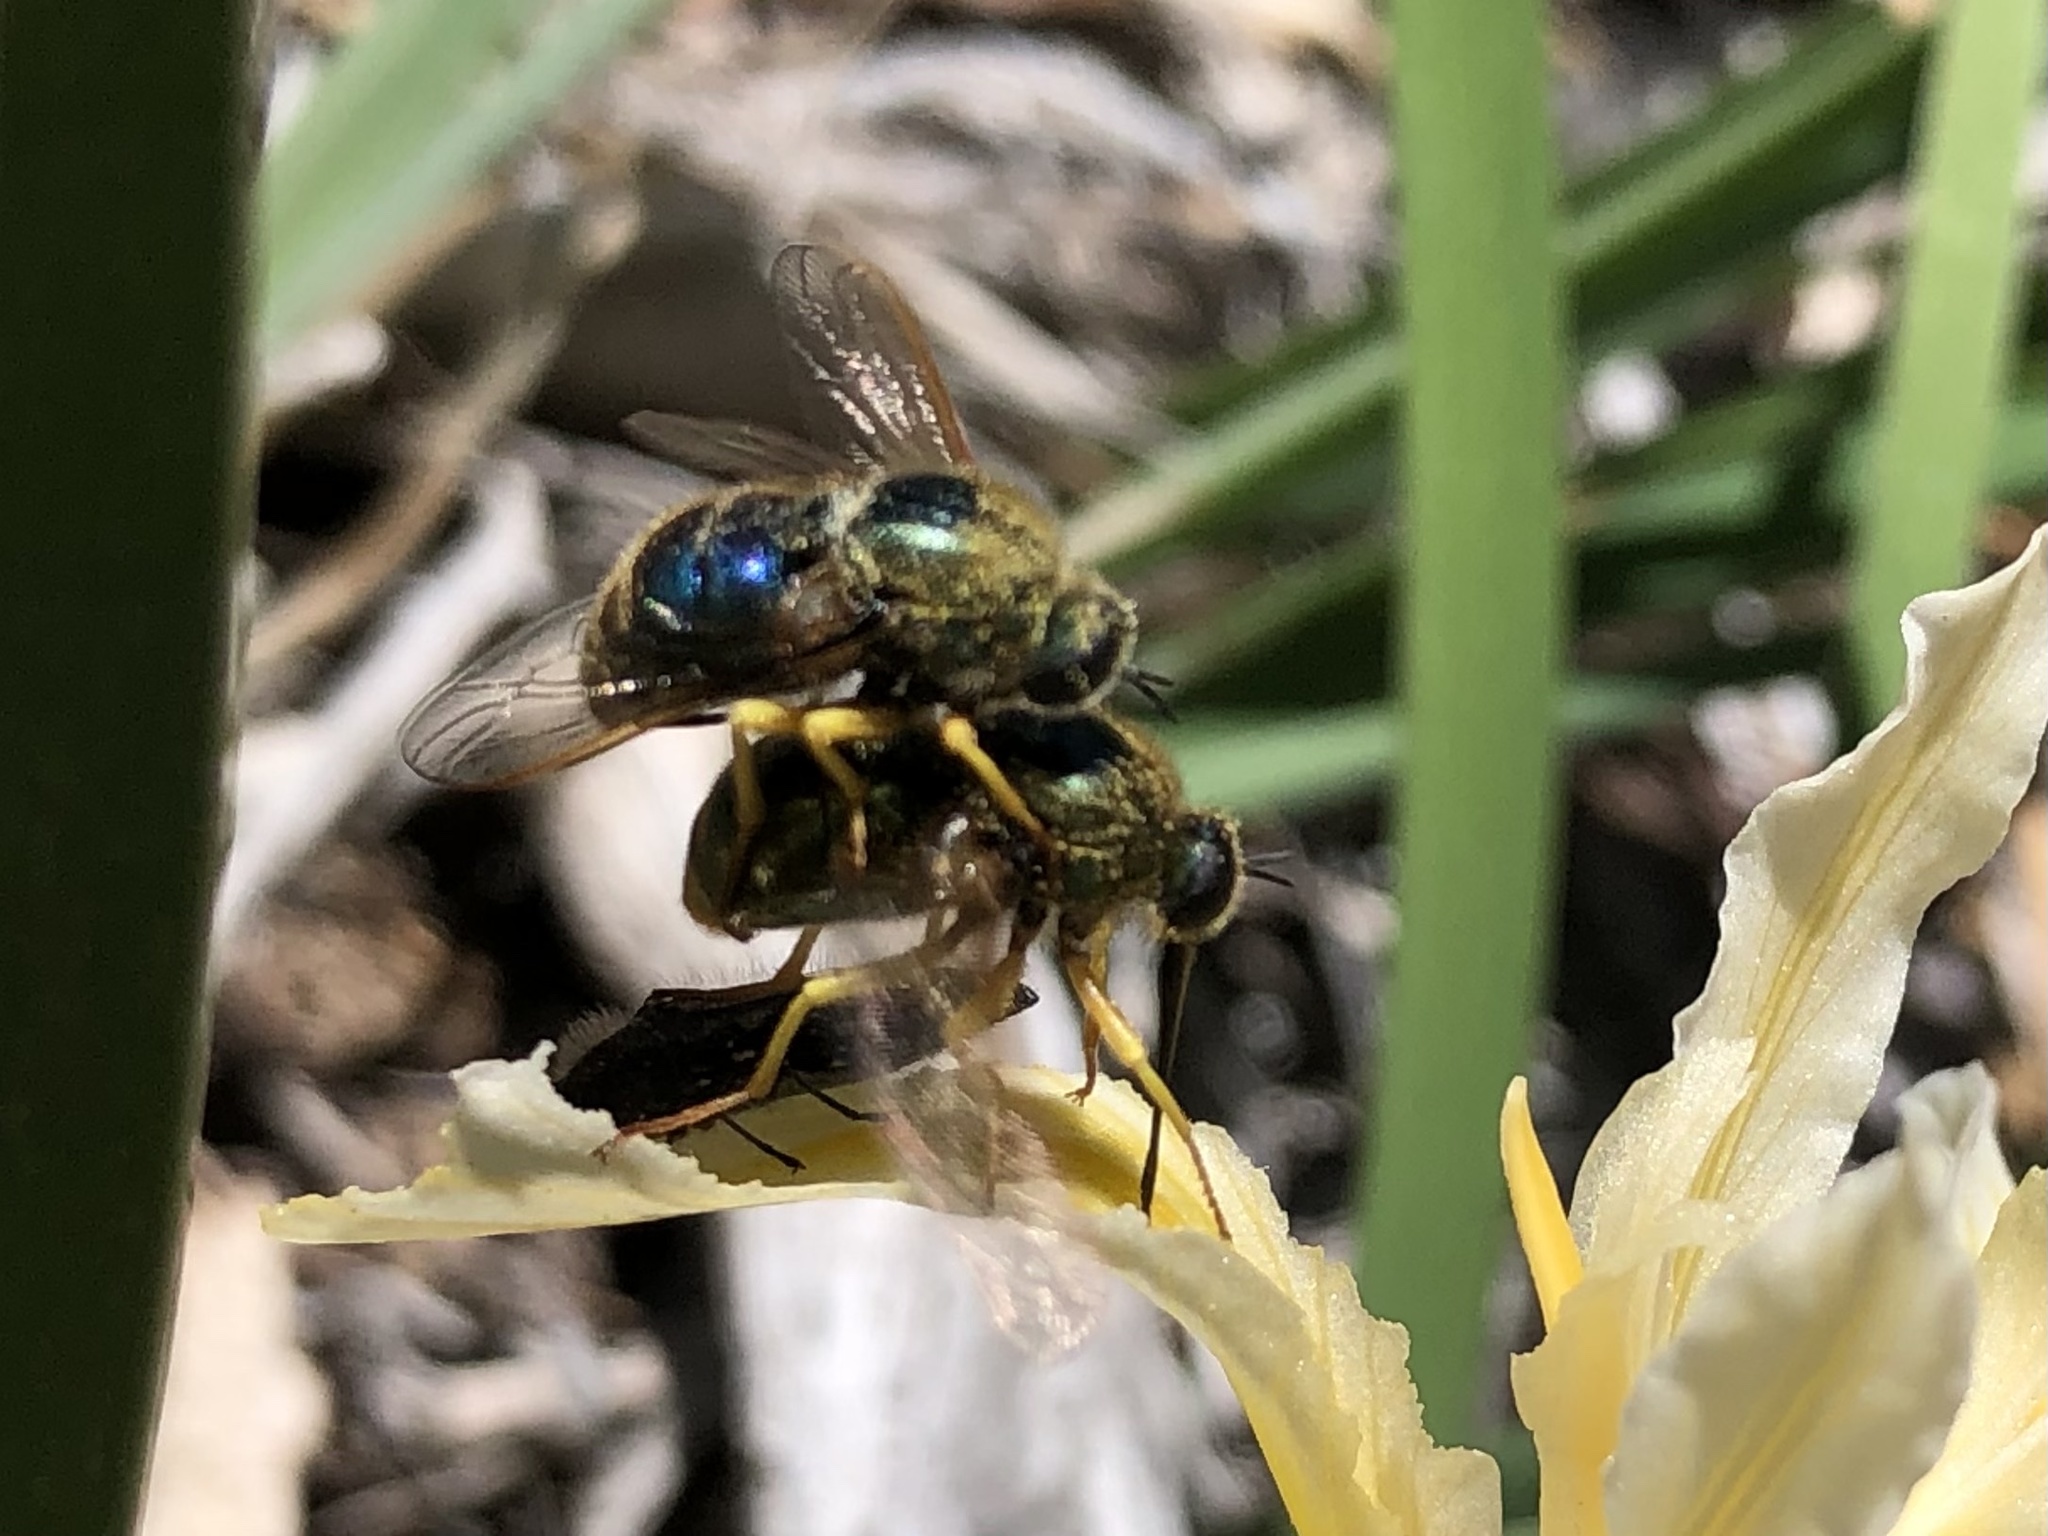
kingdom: Animalia
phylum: Arthropoda
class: Insecta
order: Diptera
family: Acroceridae
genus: Eulonchus
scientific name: Eulonchus sapphirinus
